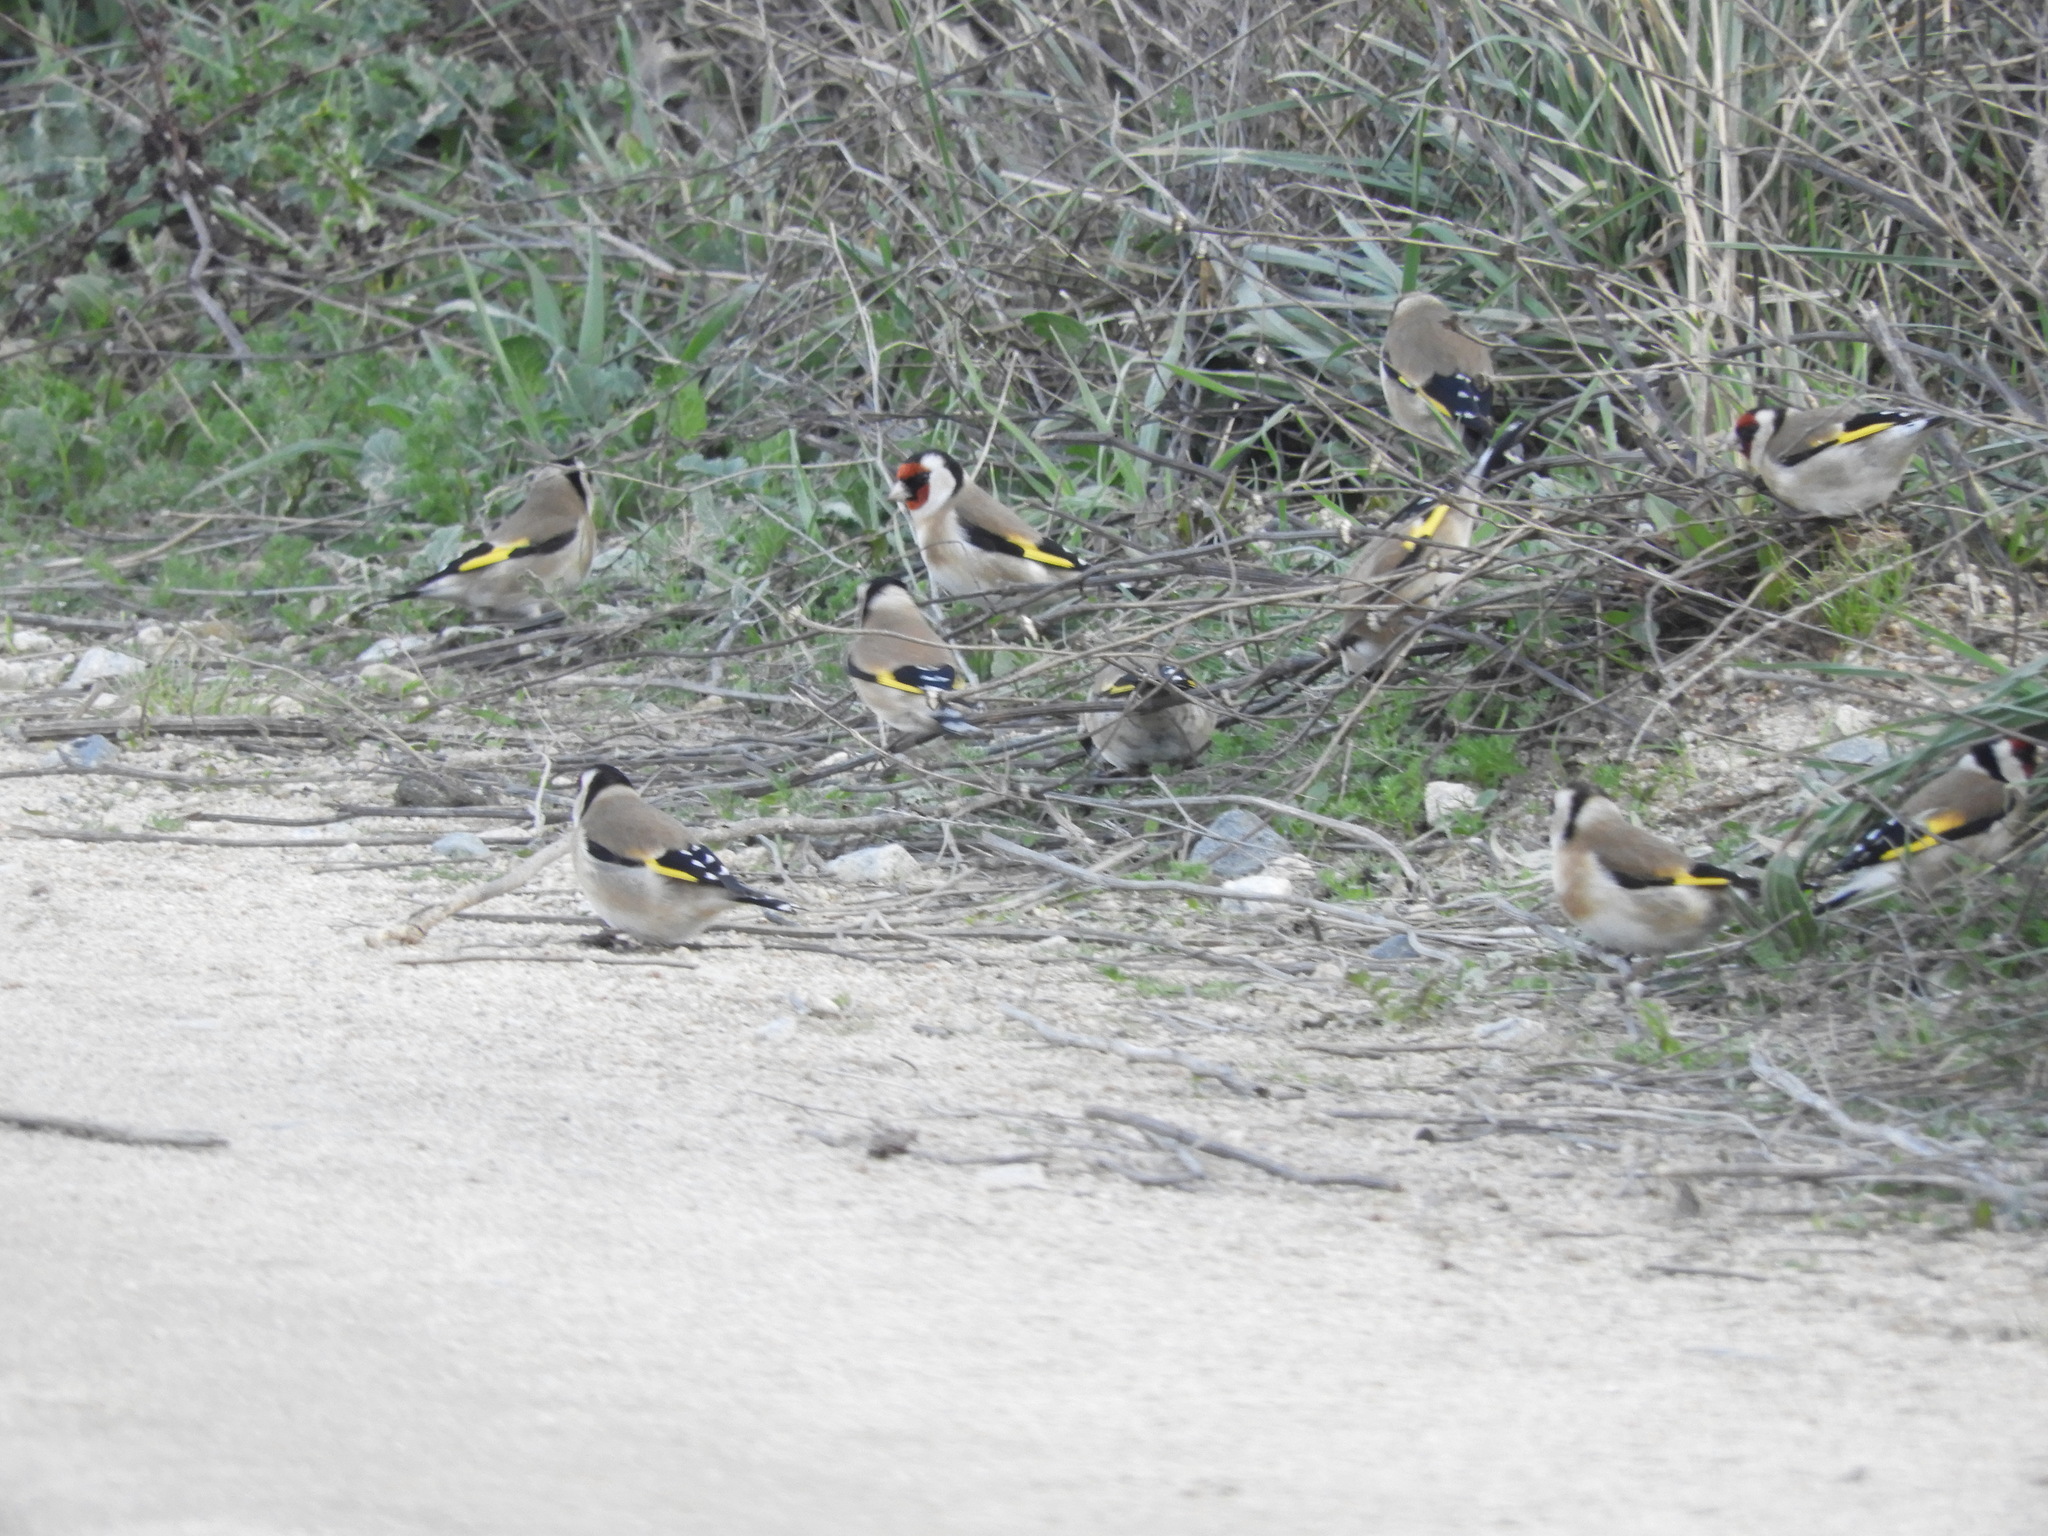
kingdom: Animalia
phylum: Chordata
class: Aves
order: Passeriformes
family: Fringillidae
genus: Carduelis
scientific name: Carduelis carduelis
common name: European goldfinch
